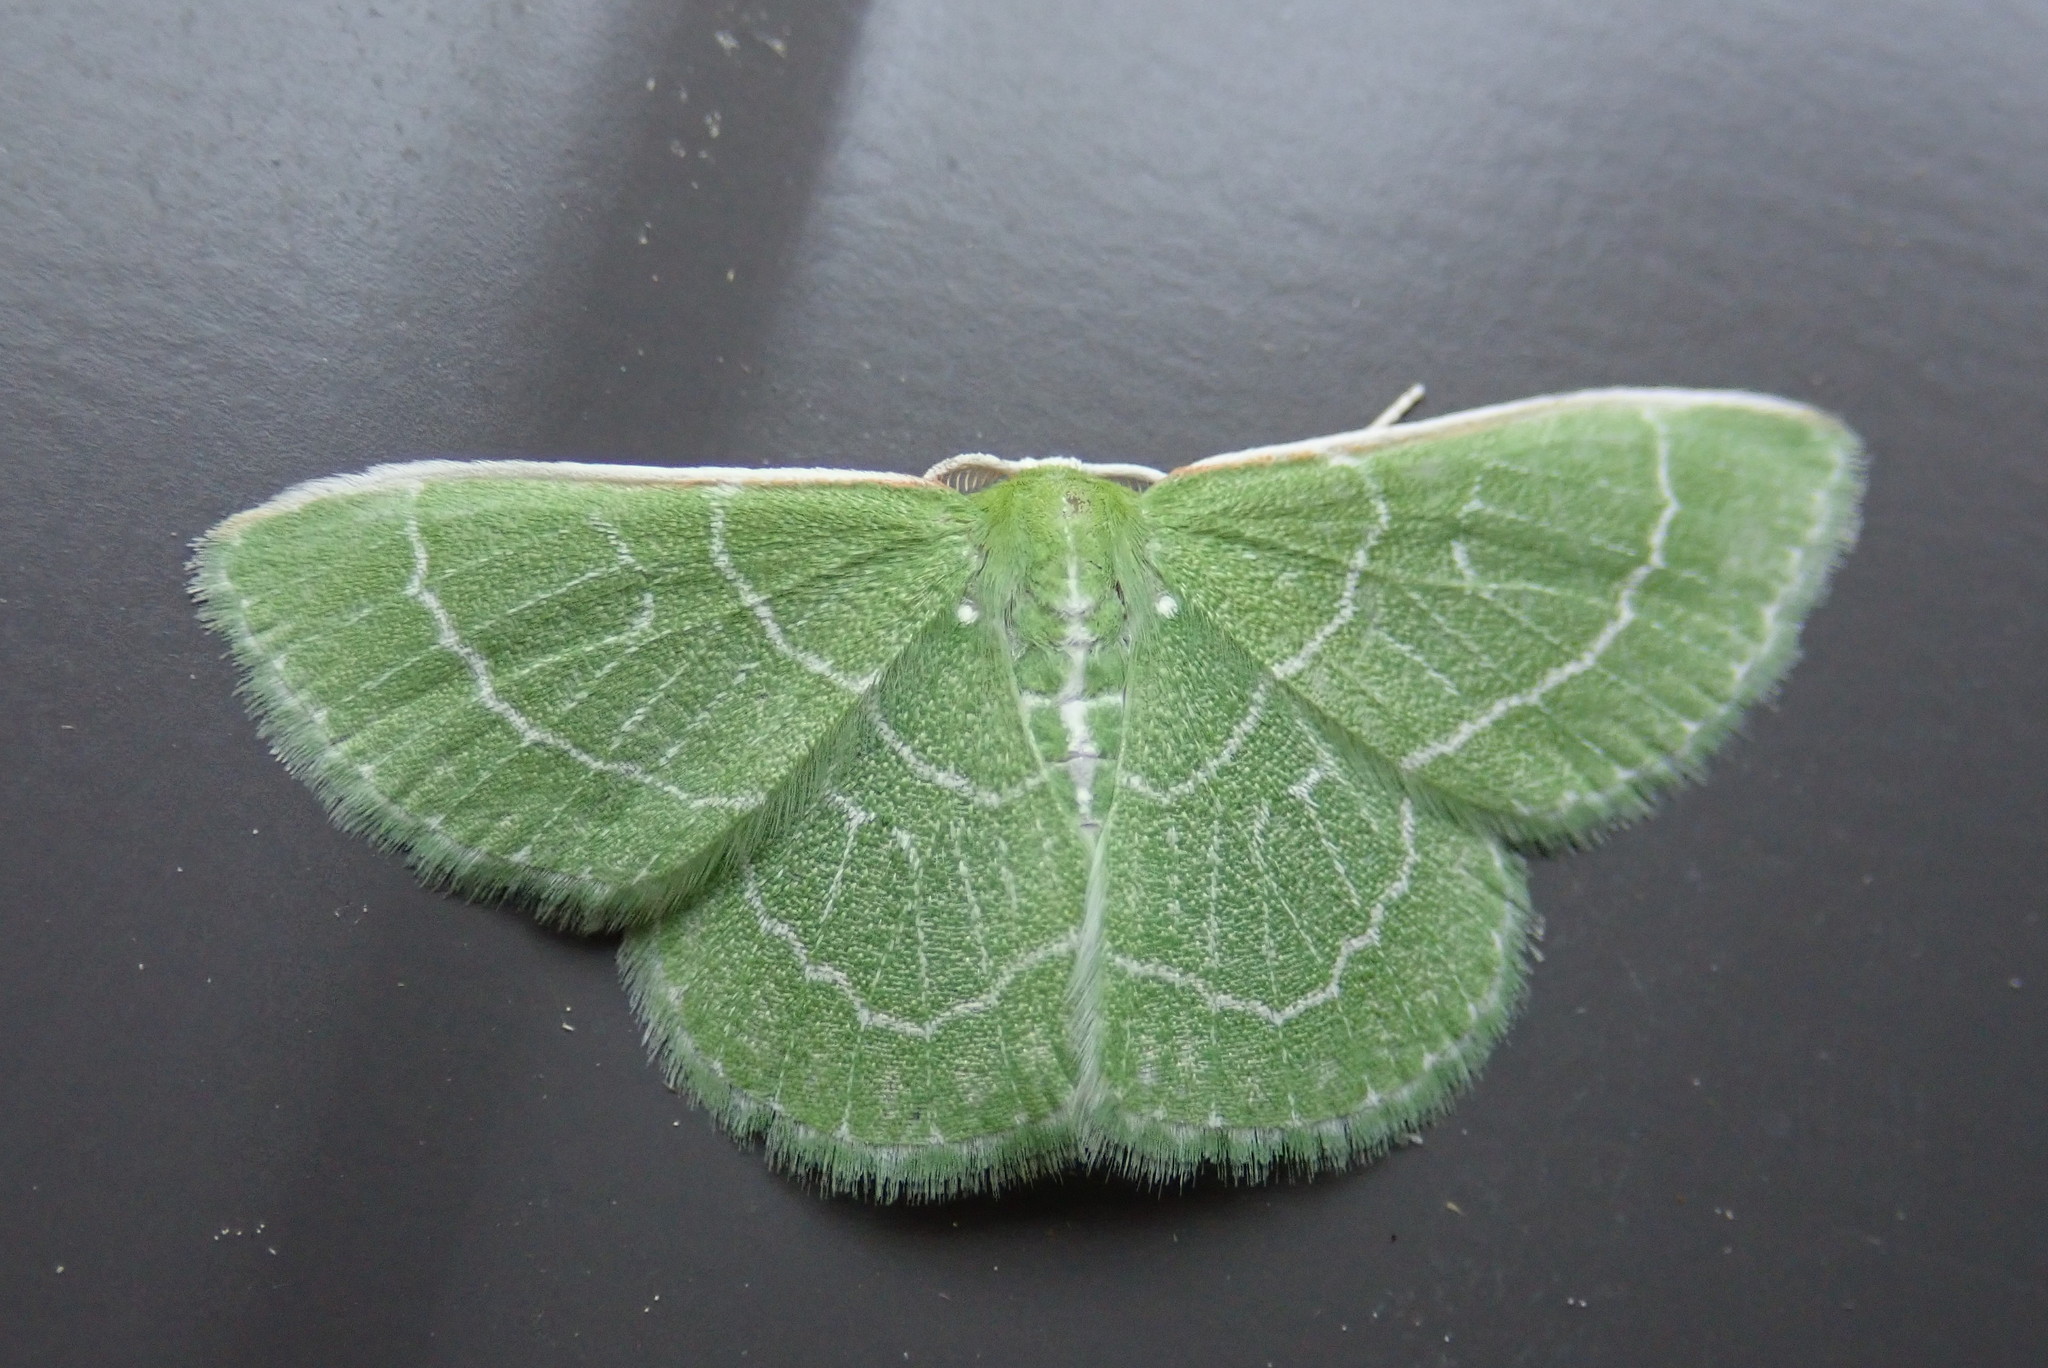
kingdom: Animalia
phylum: Arthropoda
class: Insecta
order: Lepidoptera
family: Geometridae
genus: Synchlora
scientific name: Synchlora aerata
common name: Wavy-lined emerald
